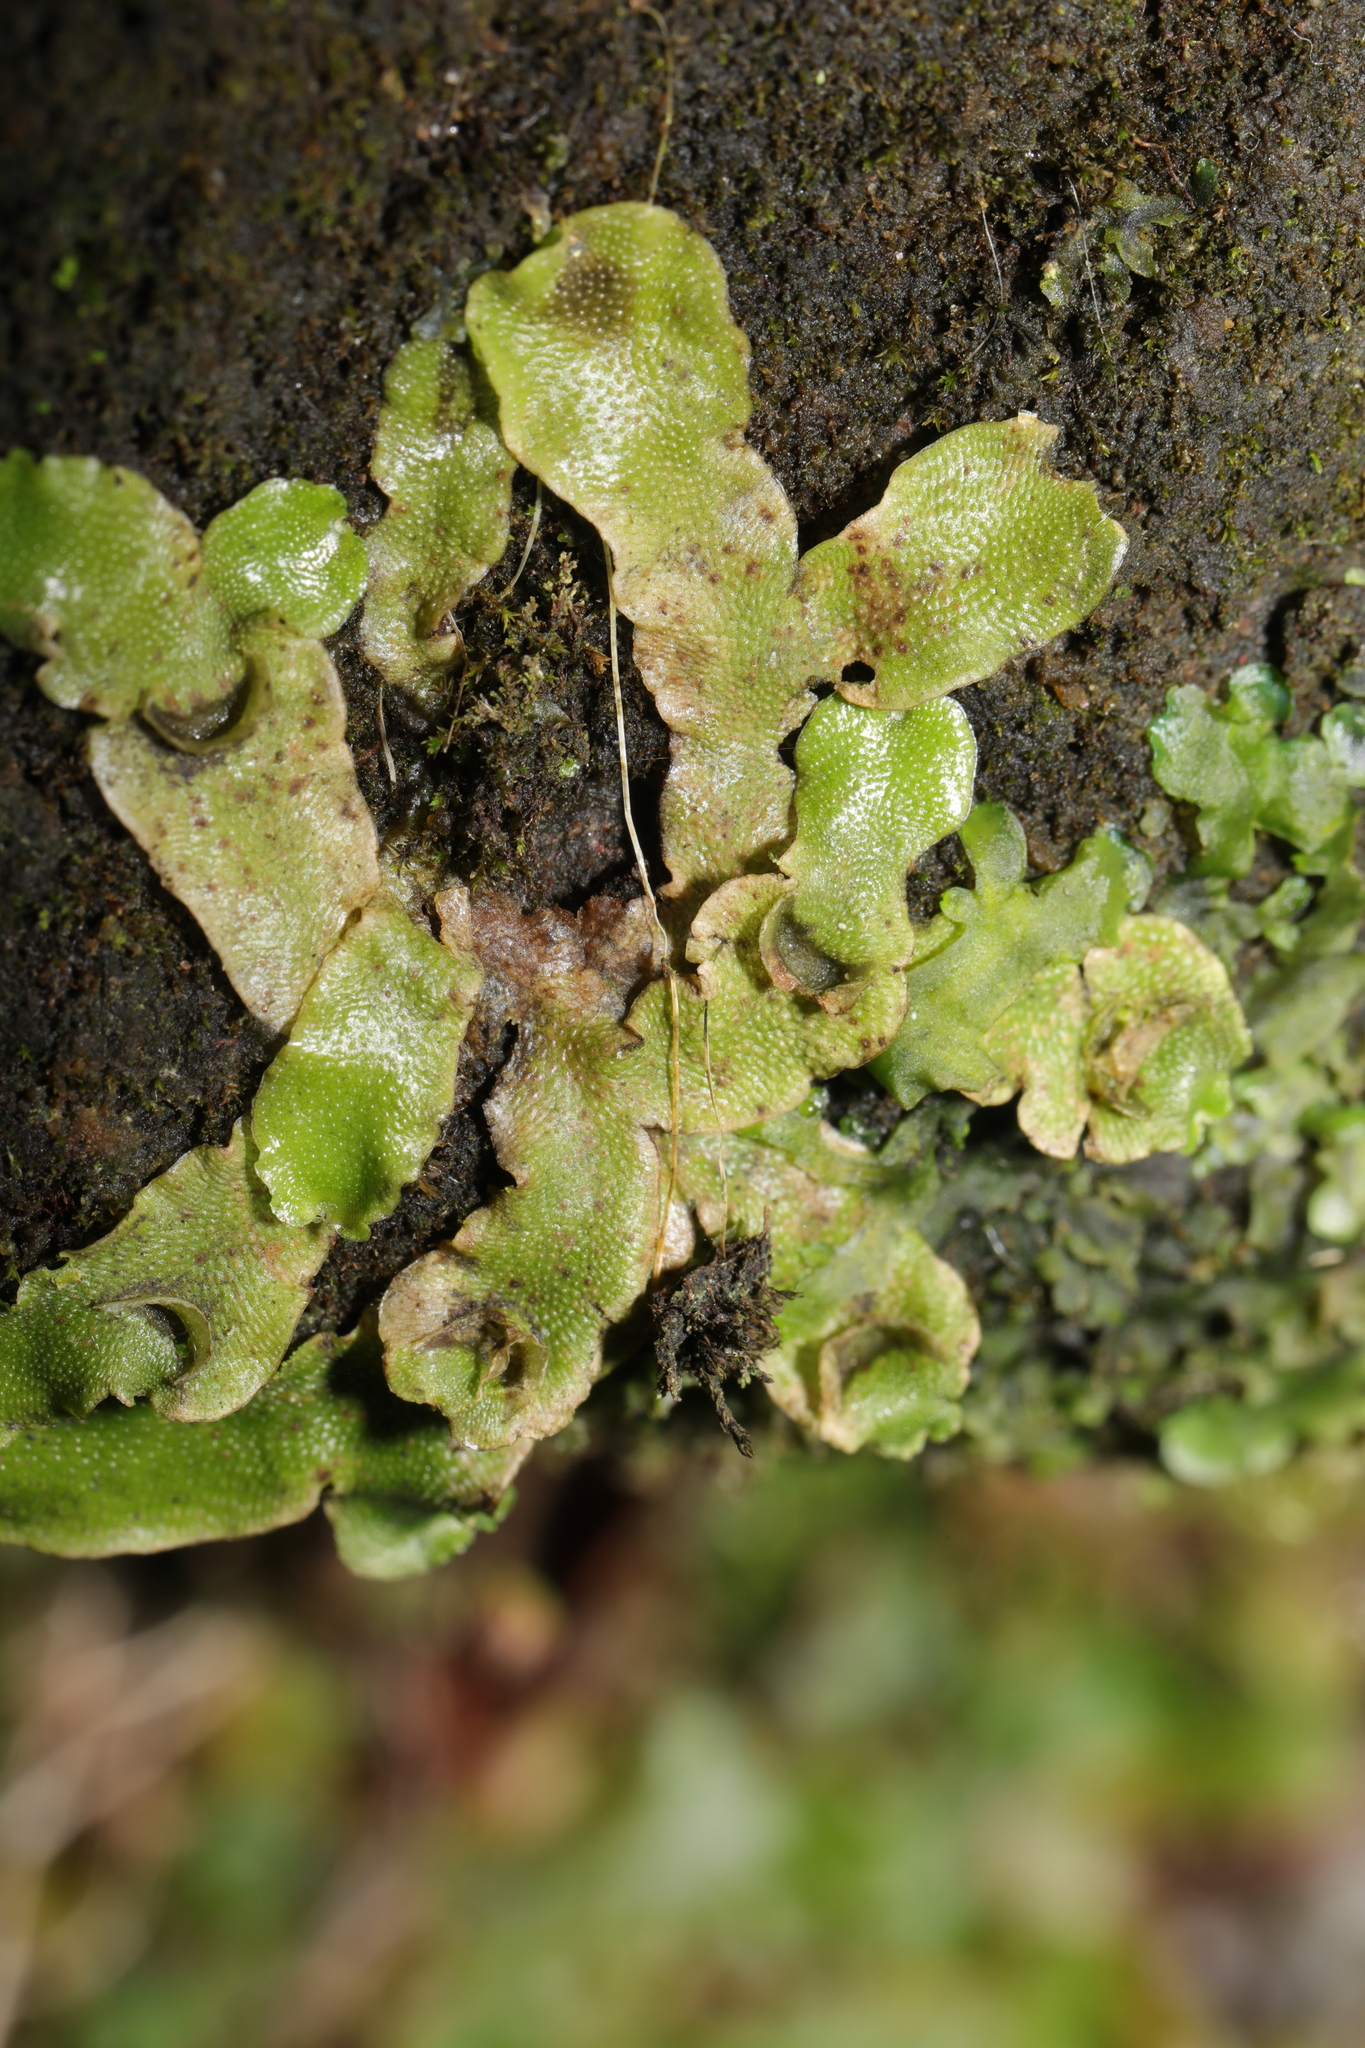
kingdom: Plantae
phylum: Marchantiophyta
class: Marchantiopsida
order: Lunulariales
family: Lunulariaceae
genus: Lunularia
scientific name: Lunularia cruciata
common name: Crescent-cup liverwort
